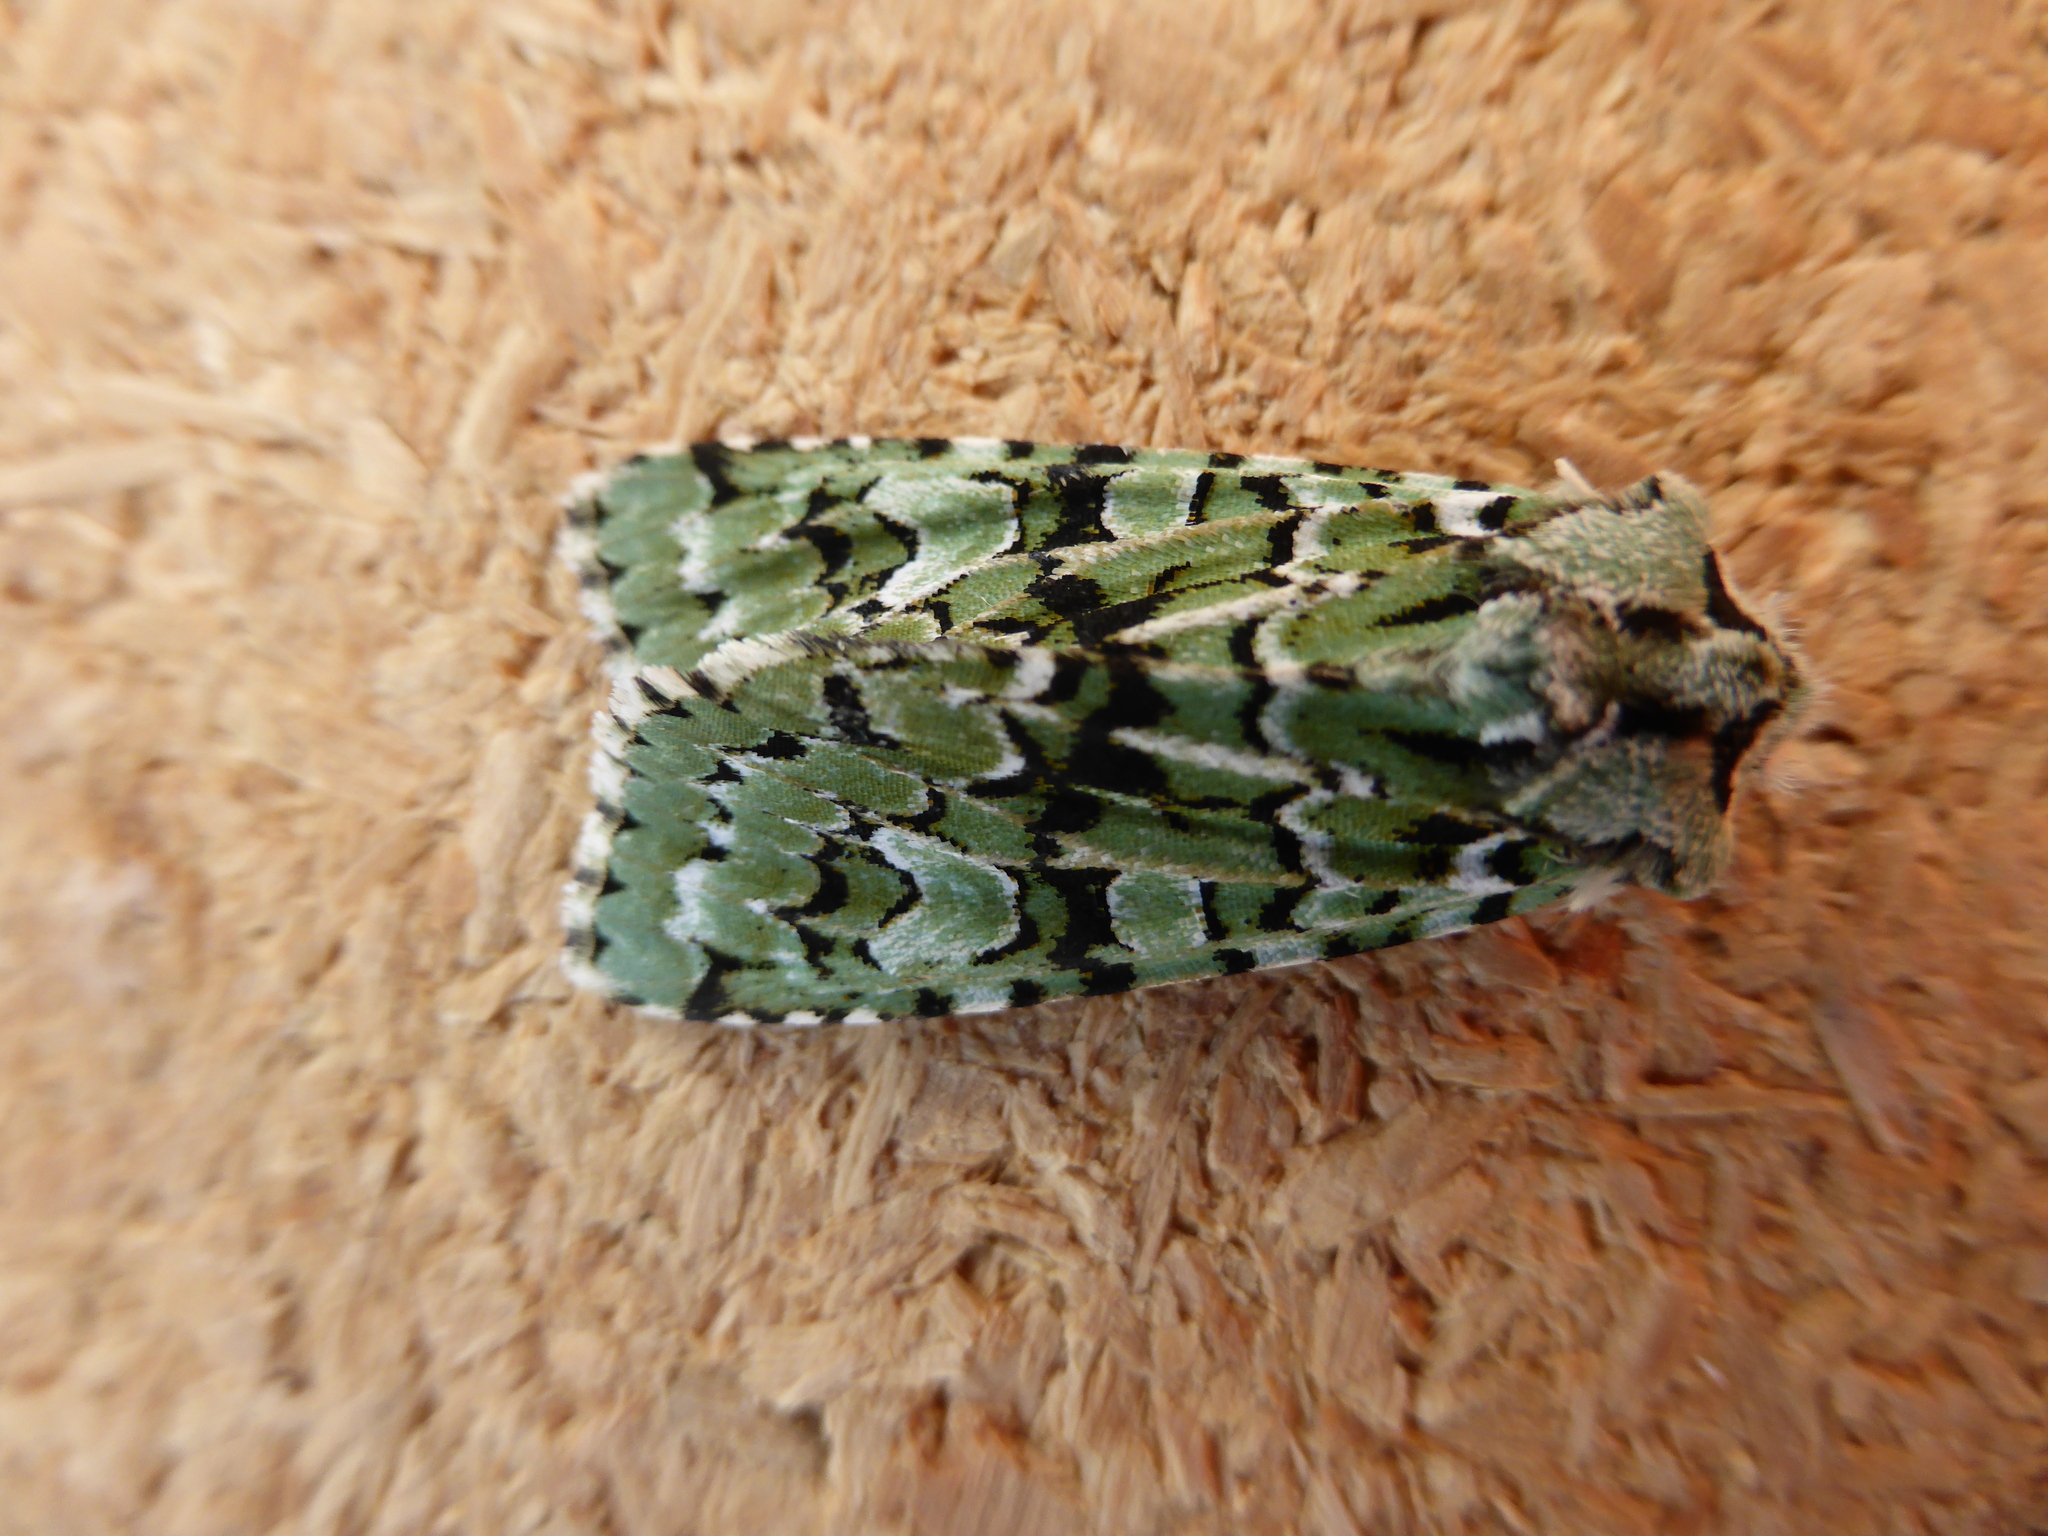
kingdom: Animalia
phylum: Arthropoda
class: Insecta
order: Lepidoptera
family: Noctuidae
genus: Griposia
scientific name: Griposia aprilina
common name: Merveille du jour
